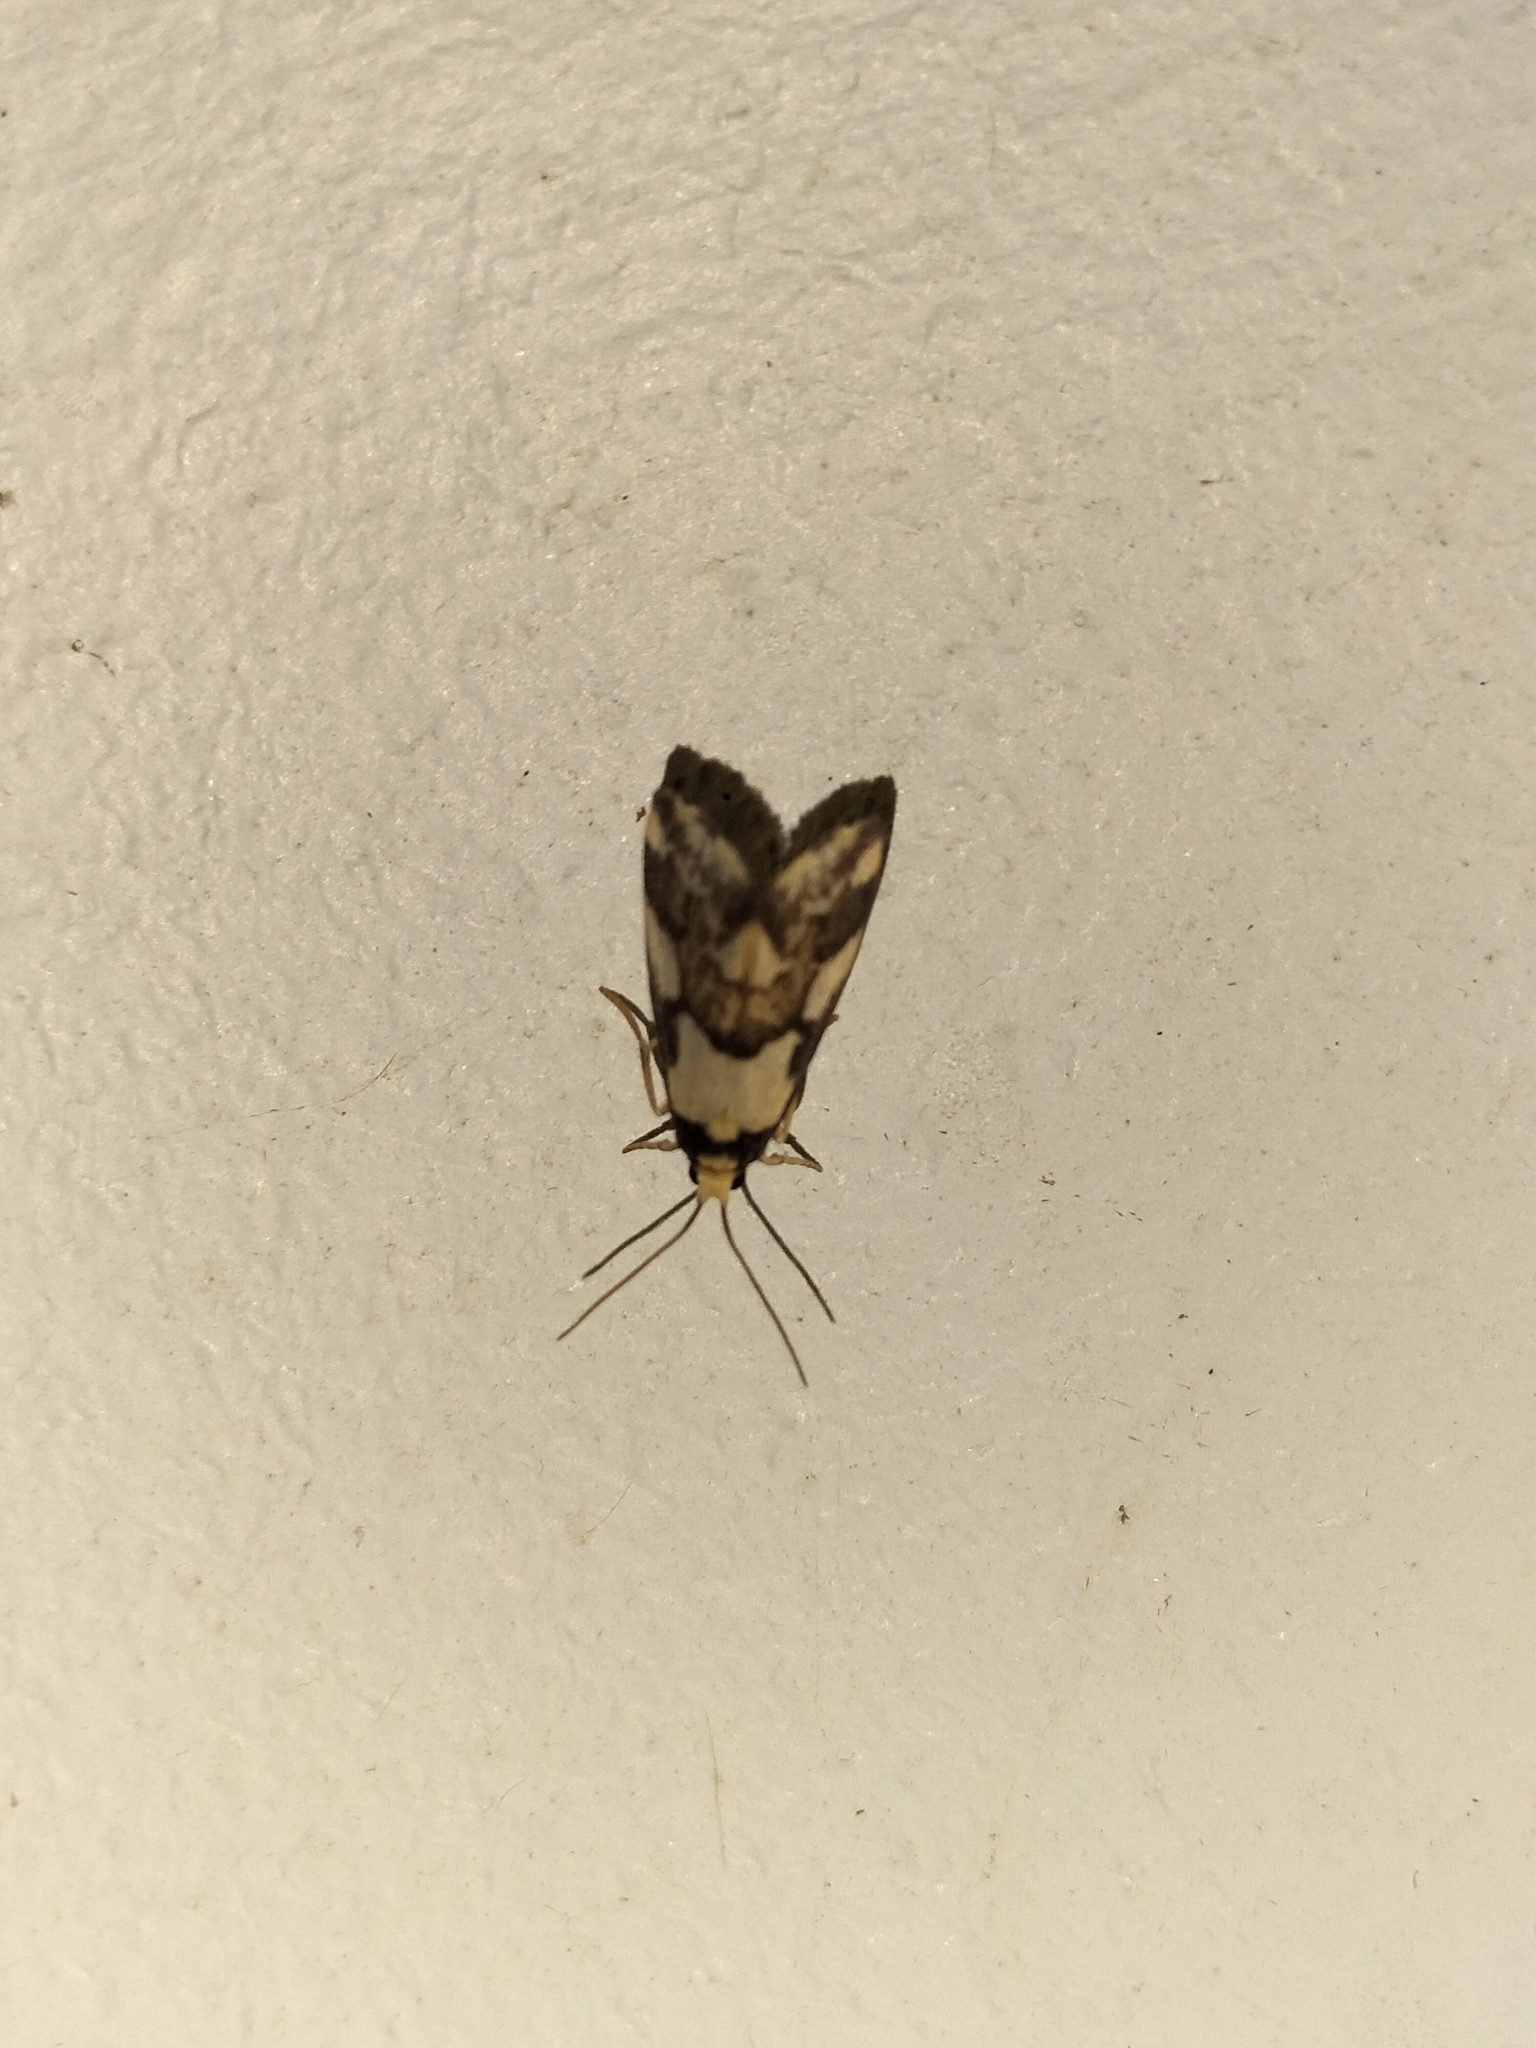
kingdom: Animalia
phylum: Arthropoda
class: Insecta
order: Lepidoptera
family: Erebidae
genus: Philenora
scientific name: Philenora chionastis
